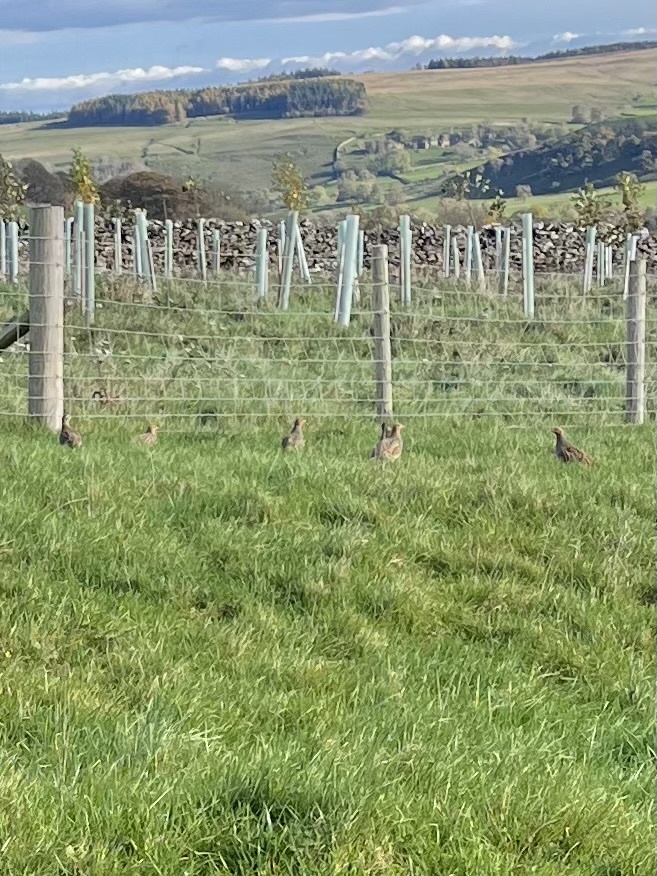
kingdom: Animalia
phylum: Chordata
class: Aves
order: Galliformes
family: Phasianidae
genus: Perdix
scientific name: Perdix perdix
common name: Grey partridge
